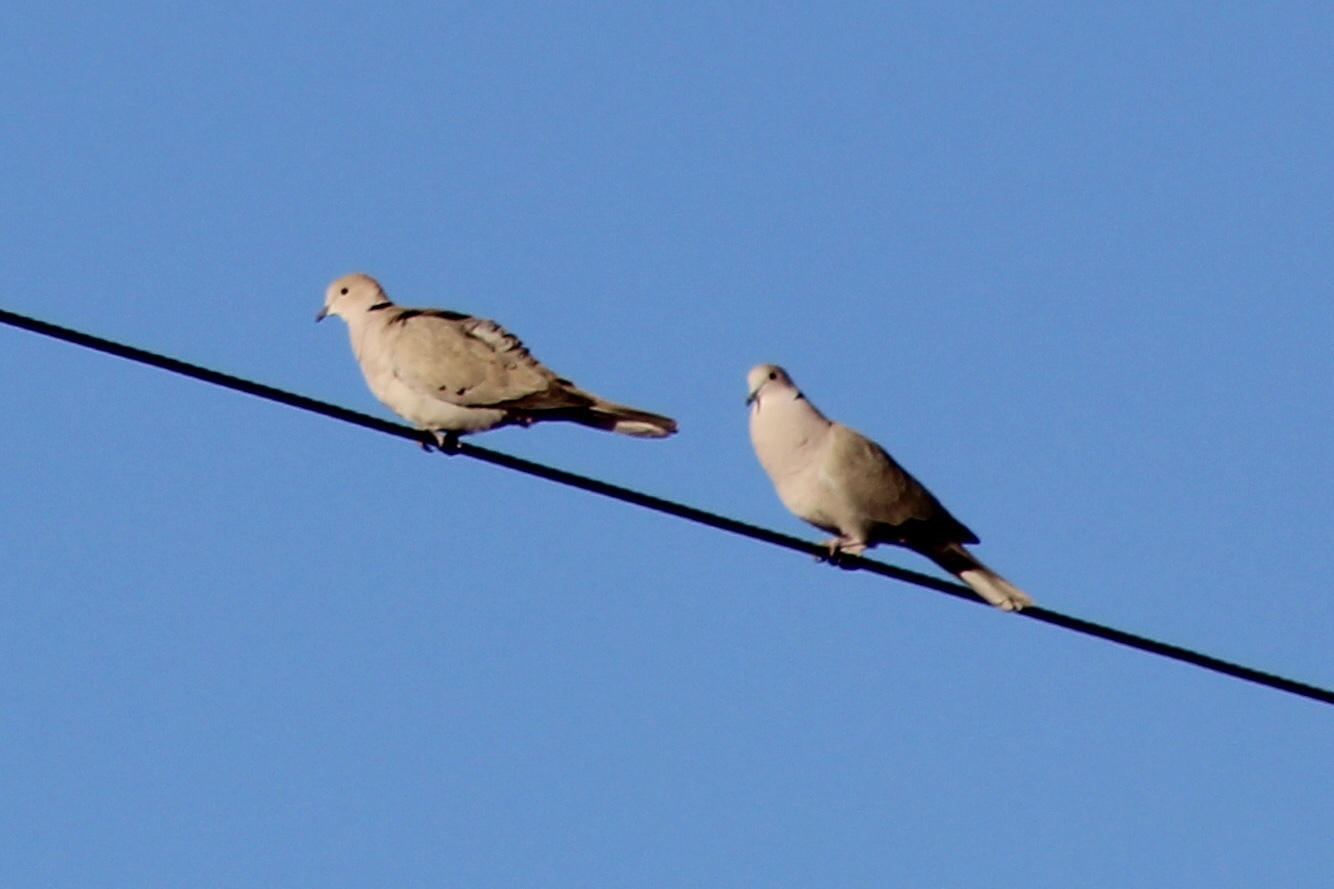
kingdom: Animalia
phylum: Chordata
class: Aves
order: Columbiformes
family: Columbidae
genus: Streptopelia
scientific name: Streptopelia decaocto
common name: Eurasian collared dove
